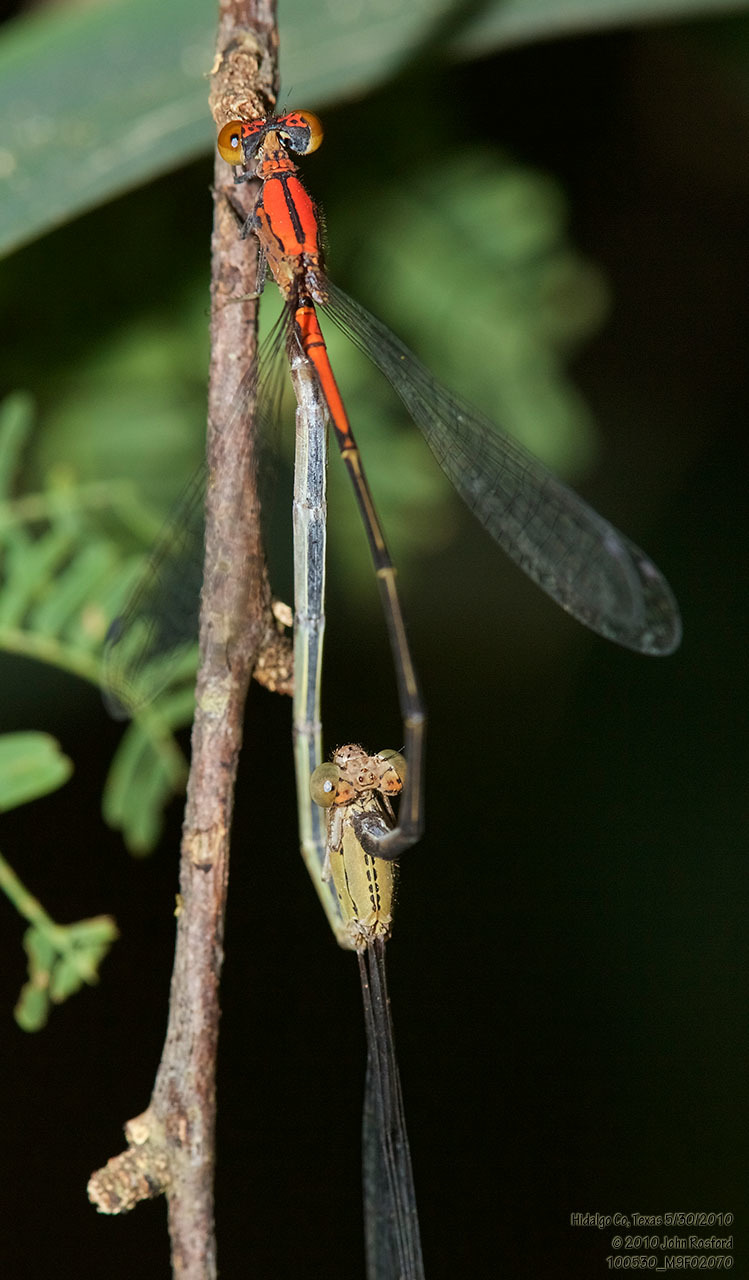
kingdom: Animalia
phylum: Arthropoda
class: Insecta
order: Odonata
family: Coenagrionidae
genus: Neoneura
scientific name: Neoneura amelia
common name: Amelia’s threadtail
